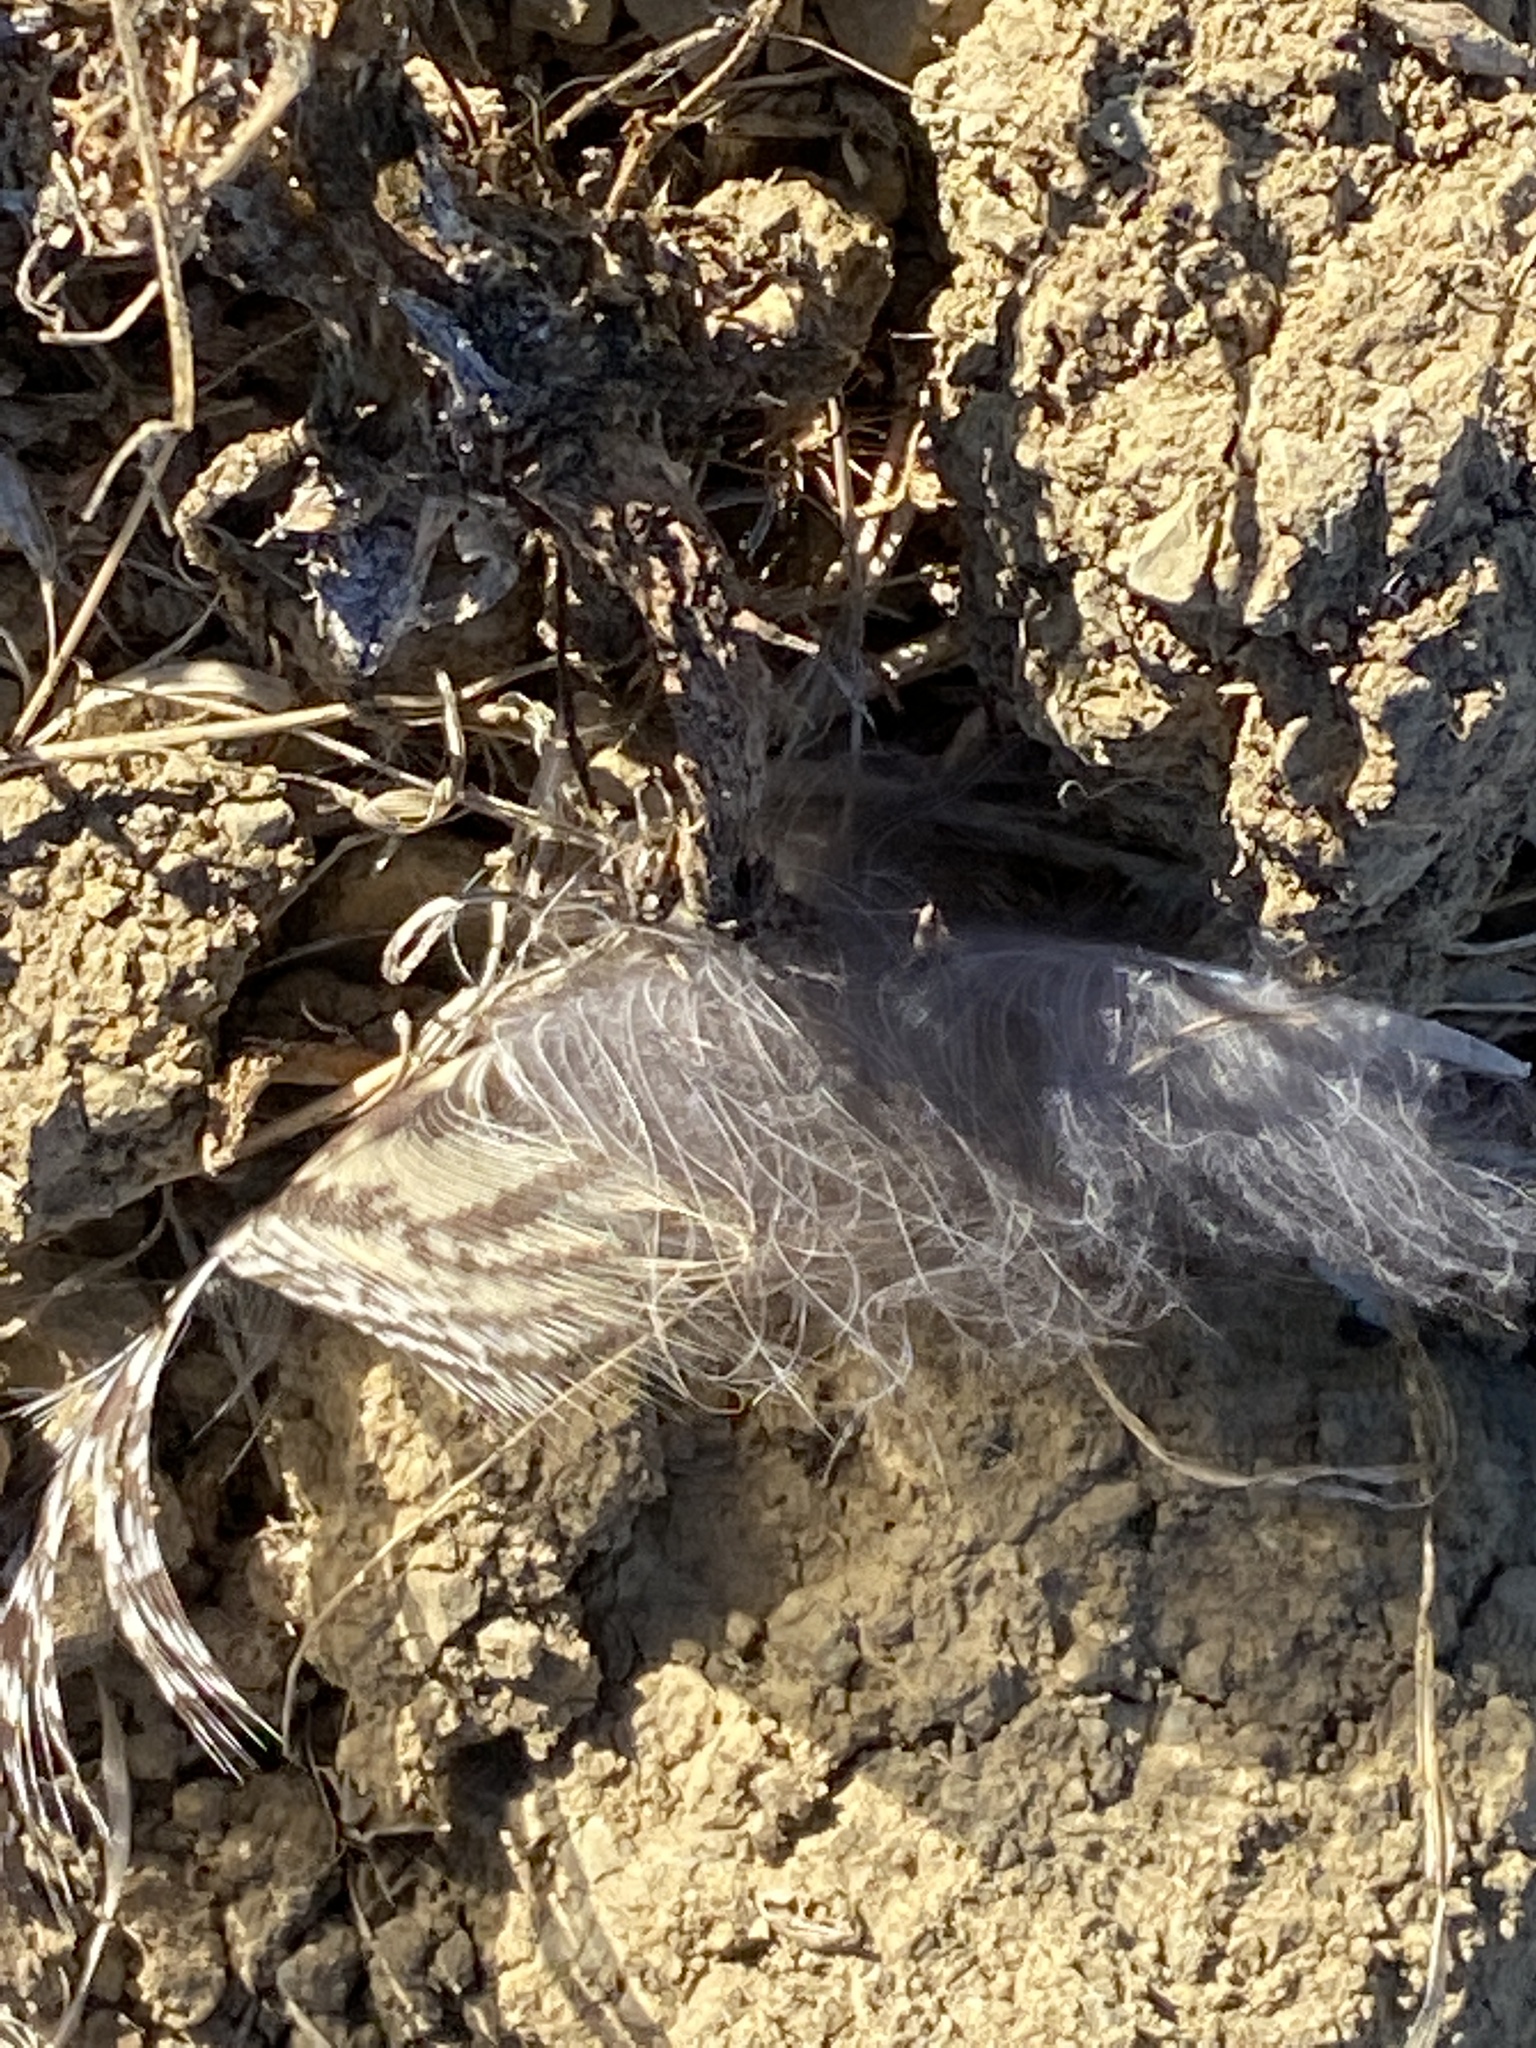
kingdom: Animalia
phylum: Chordata
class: Aves
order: Strigiformes
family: Strigidae
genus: Bubo
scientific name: Bubo virginianus
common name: Great horned owl
